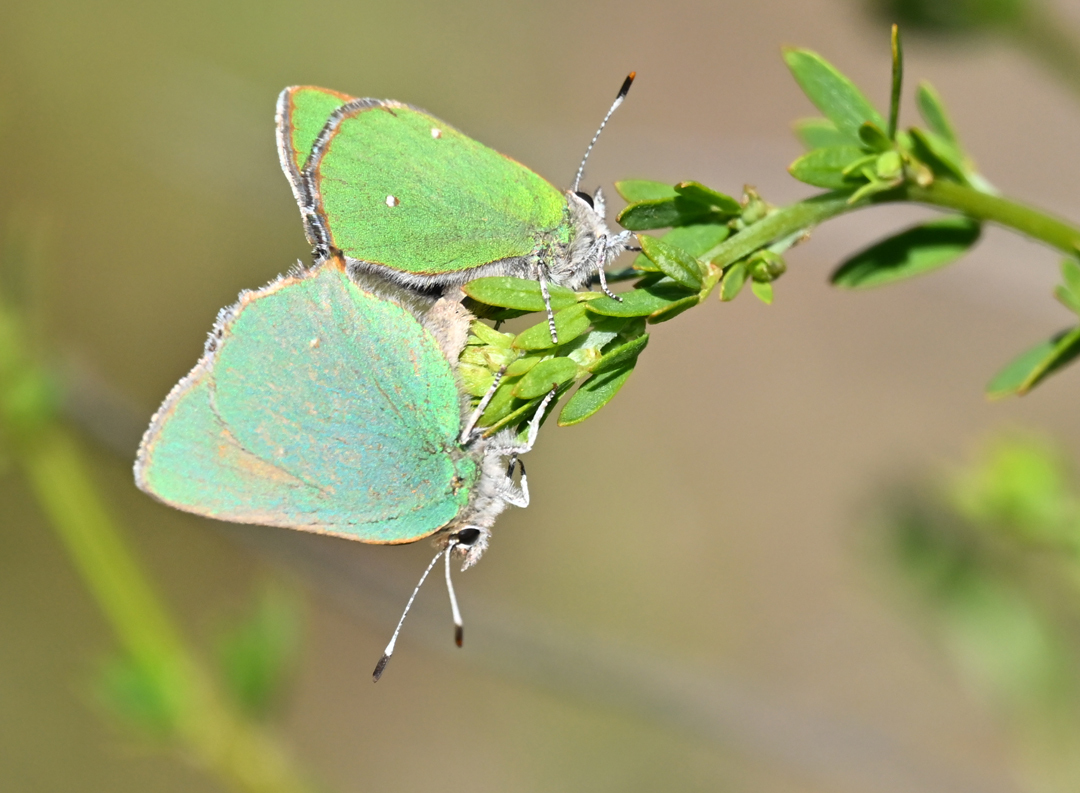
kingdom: Animalia
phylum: Arthropoda
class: Insecta
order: Lepidoptera
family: Lycaenidae
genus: Callophrys
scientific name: Callophrys dumetorum
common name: Bramble hairstreak
